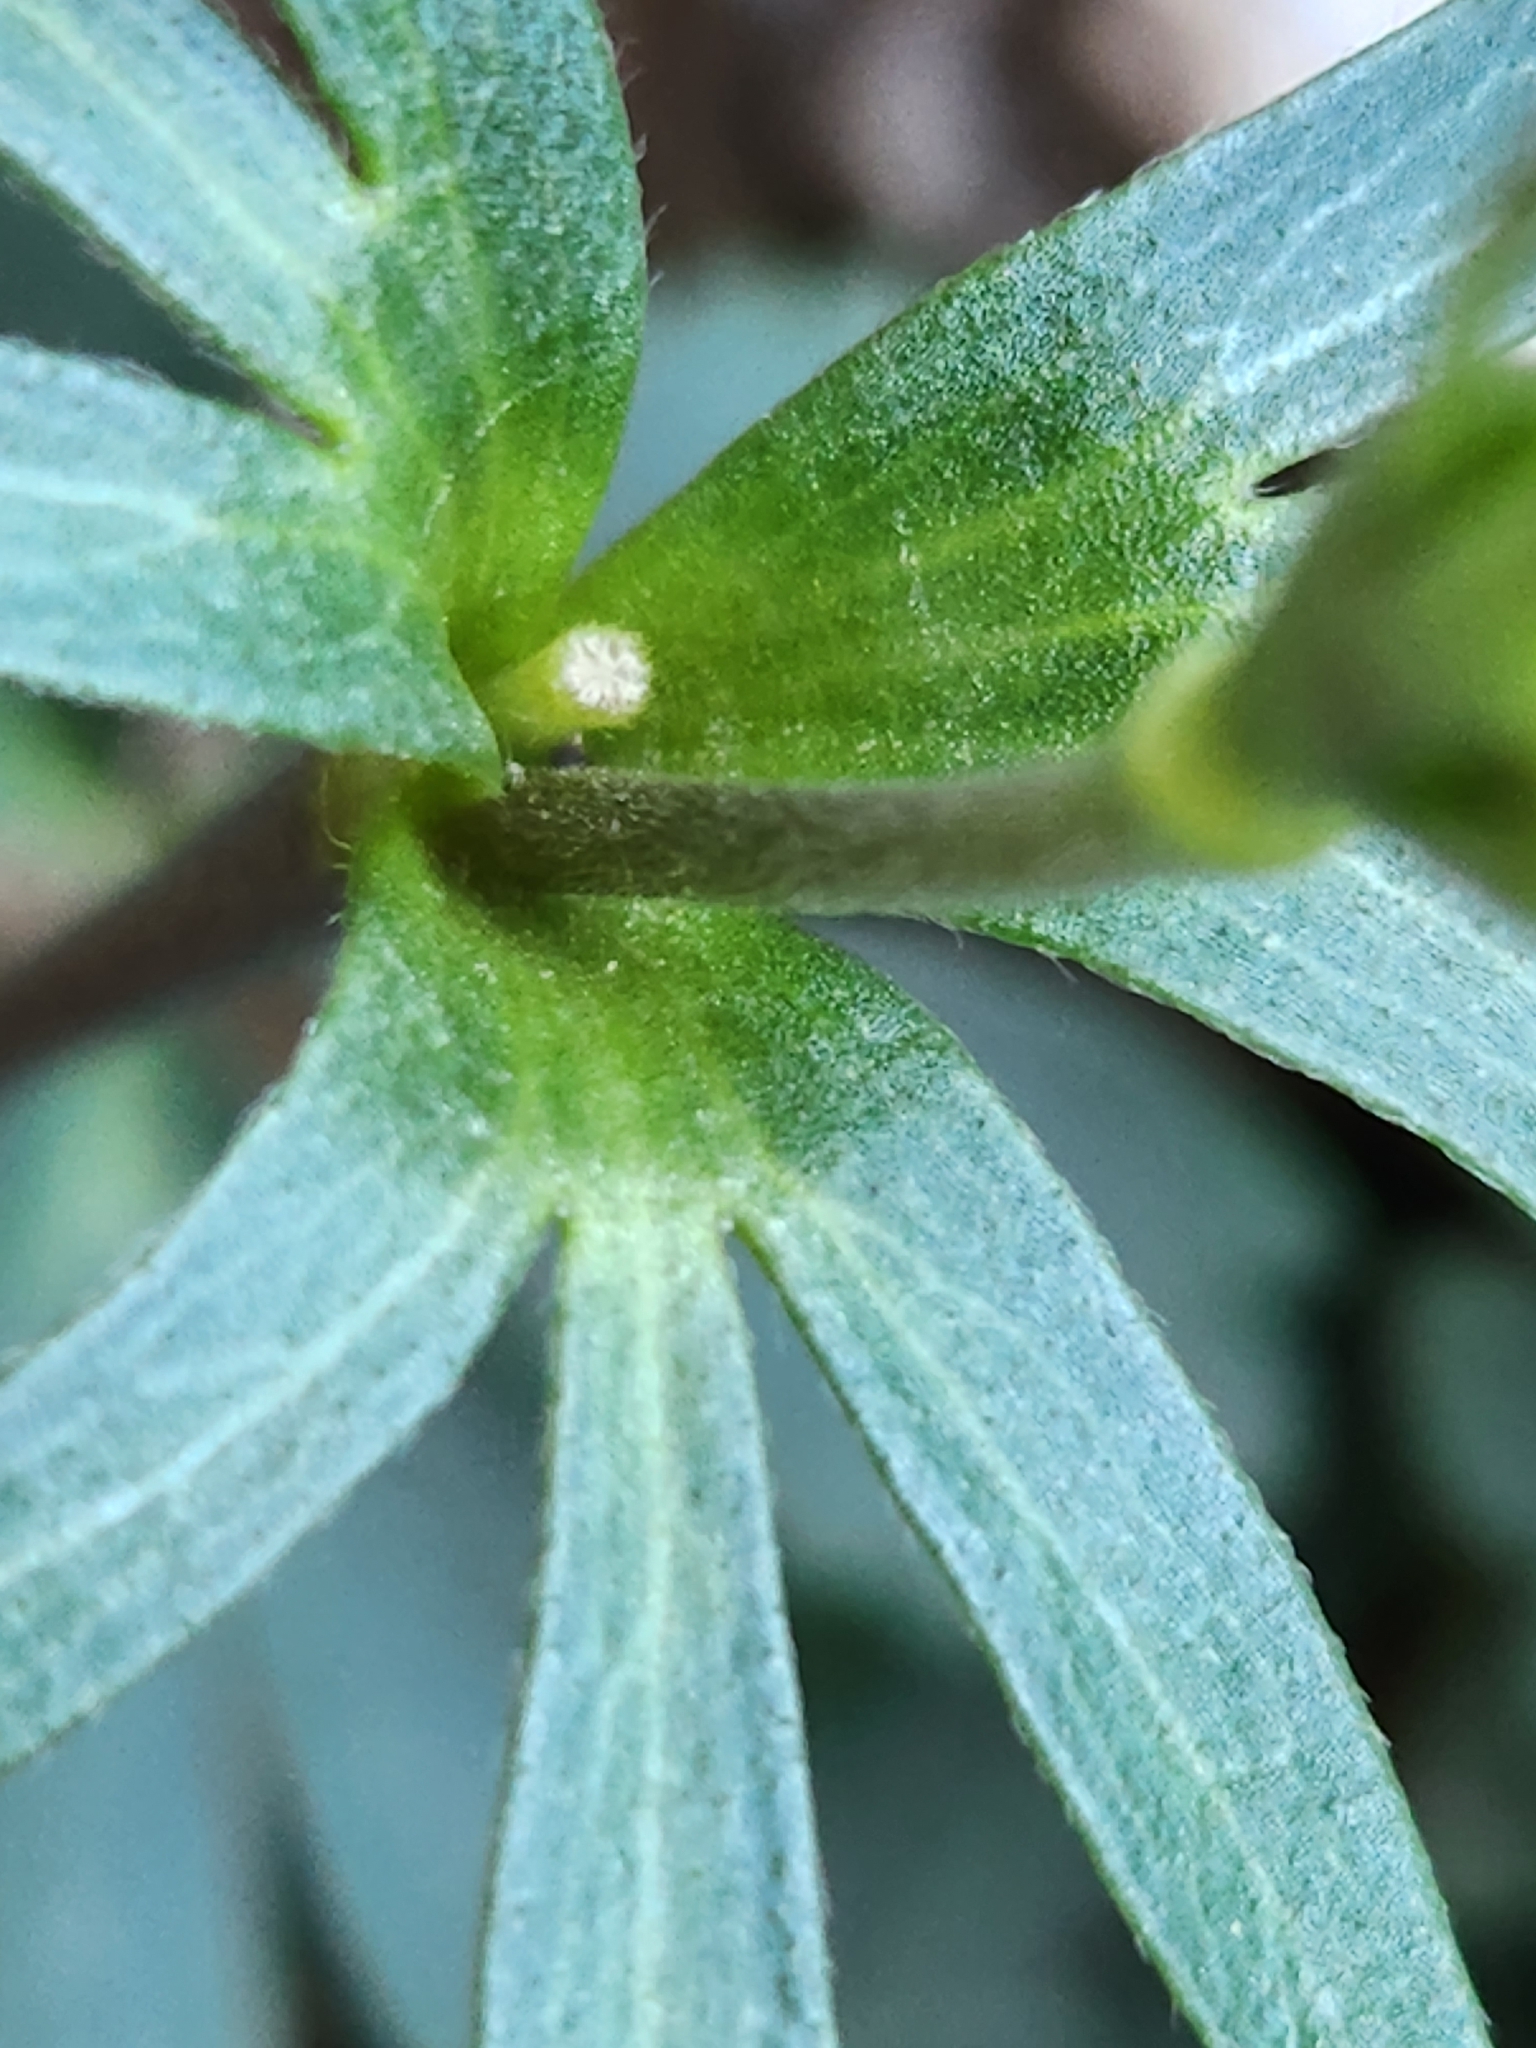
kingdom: Plantae
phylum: Tracheophyta
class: Magnoliopsida
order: Ranunculales
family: Ranunculaceae
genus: Anemone
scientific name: Anemone edwardsiana
